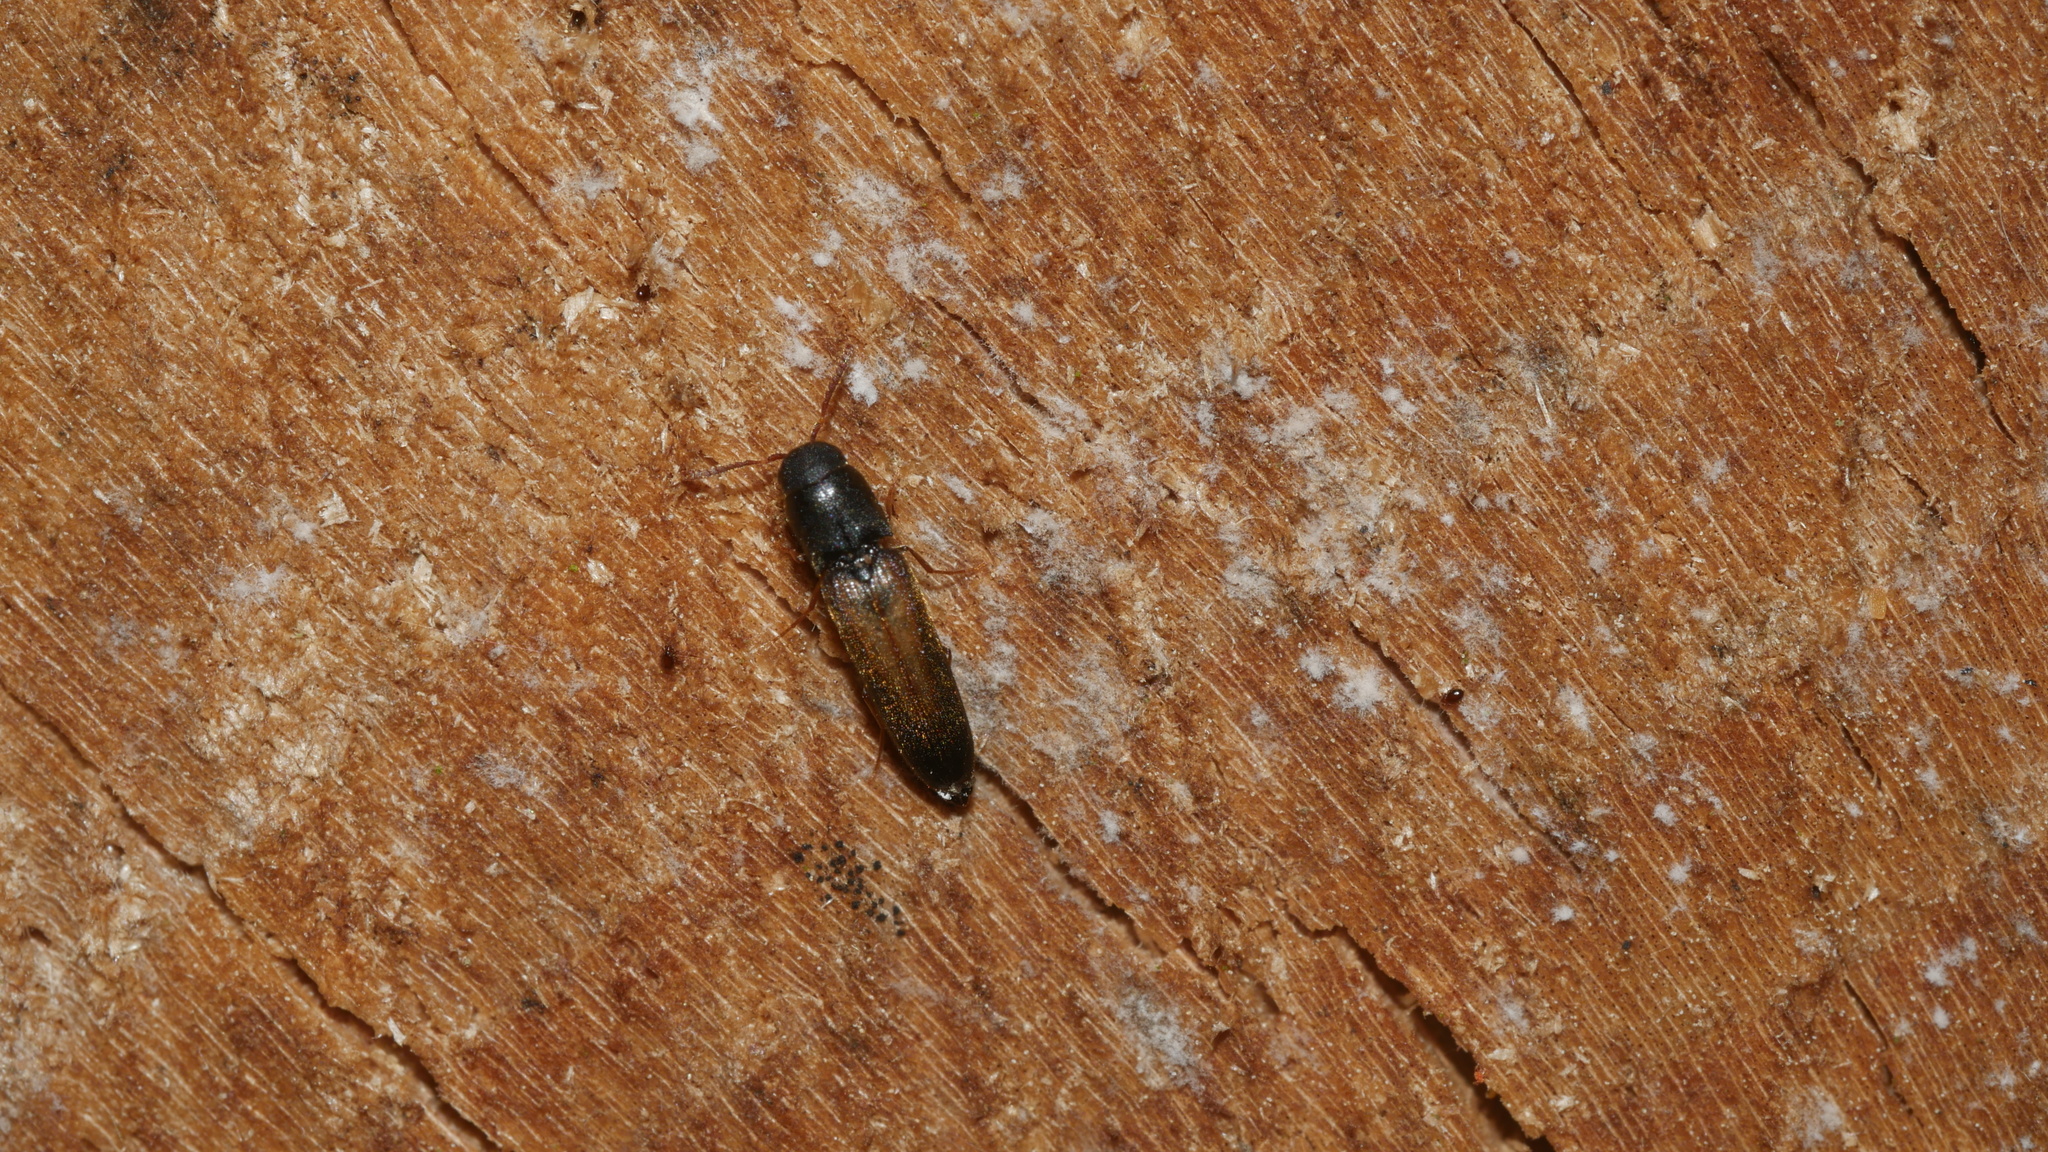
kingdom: Animalia
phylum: Arthropoda
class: Insecta
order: Coleoptera
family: Eucnemidae
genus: Isorhipis
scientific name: Isorhipis obliqua
